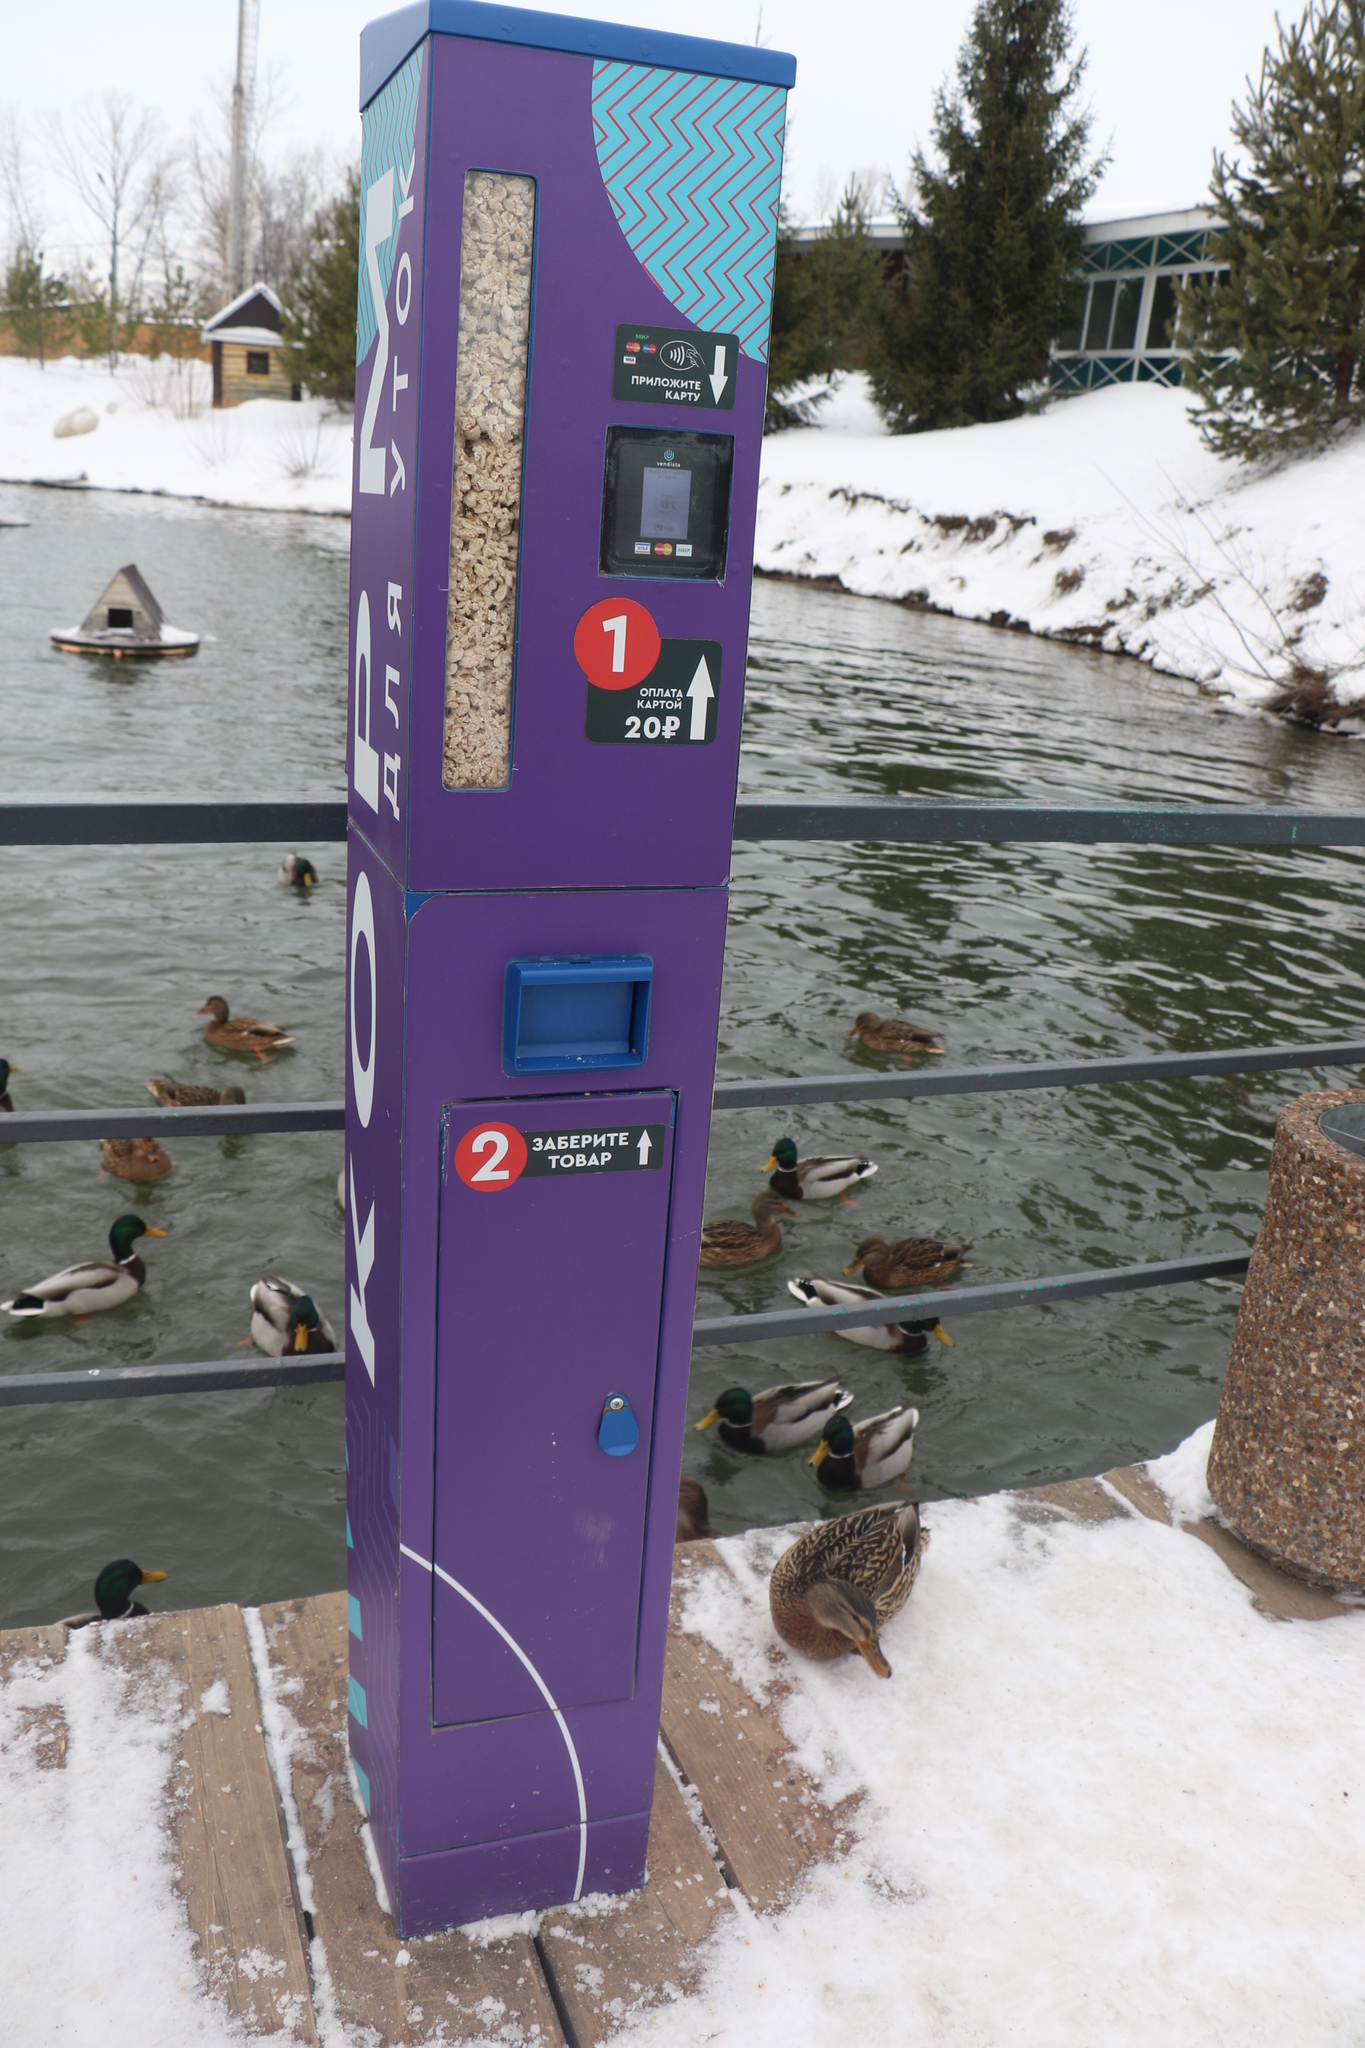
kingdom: Animalia
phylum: Chordata
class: Aves
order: Anseriformes
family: Anatidae
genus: Anas
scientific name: Anas platyrhynchos
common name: Mallard
